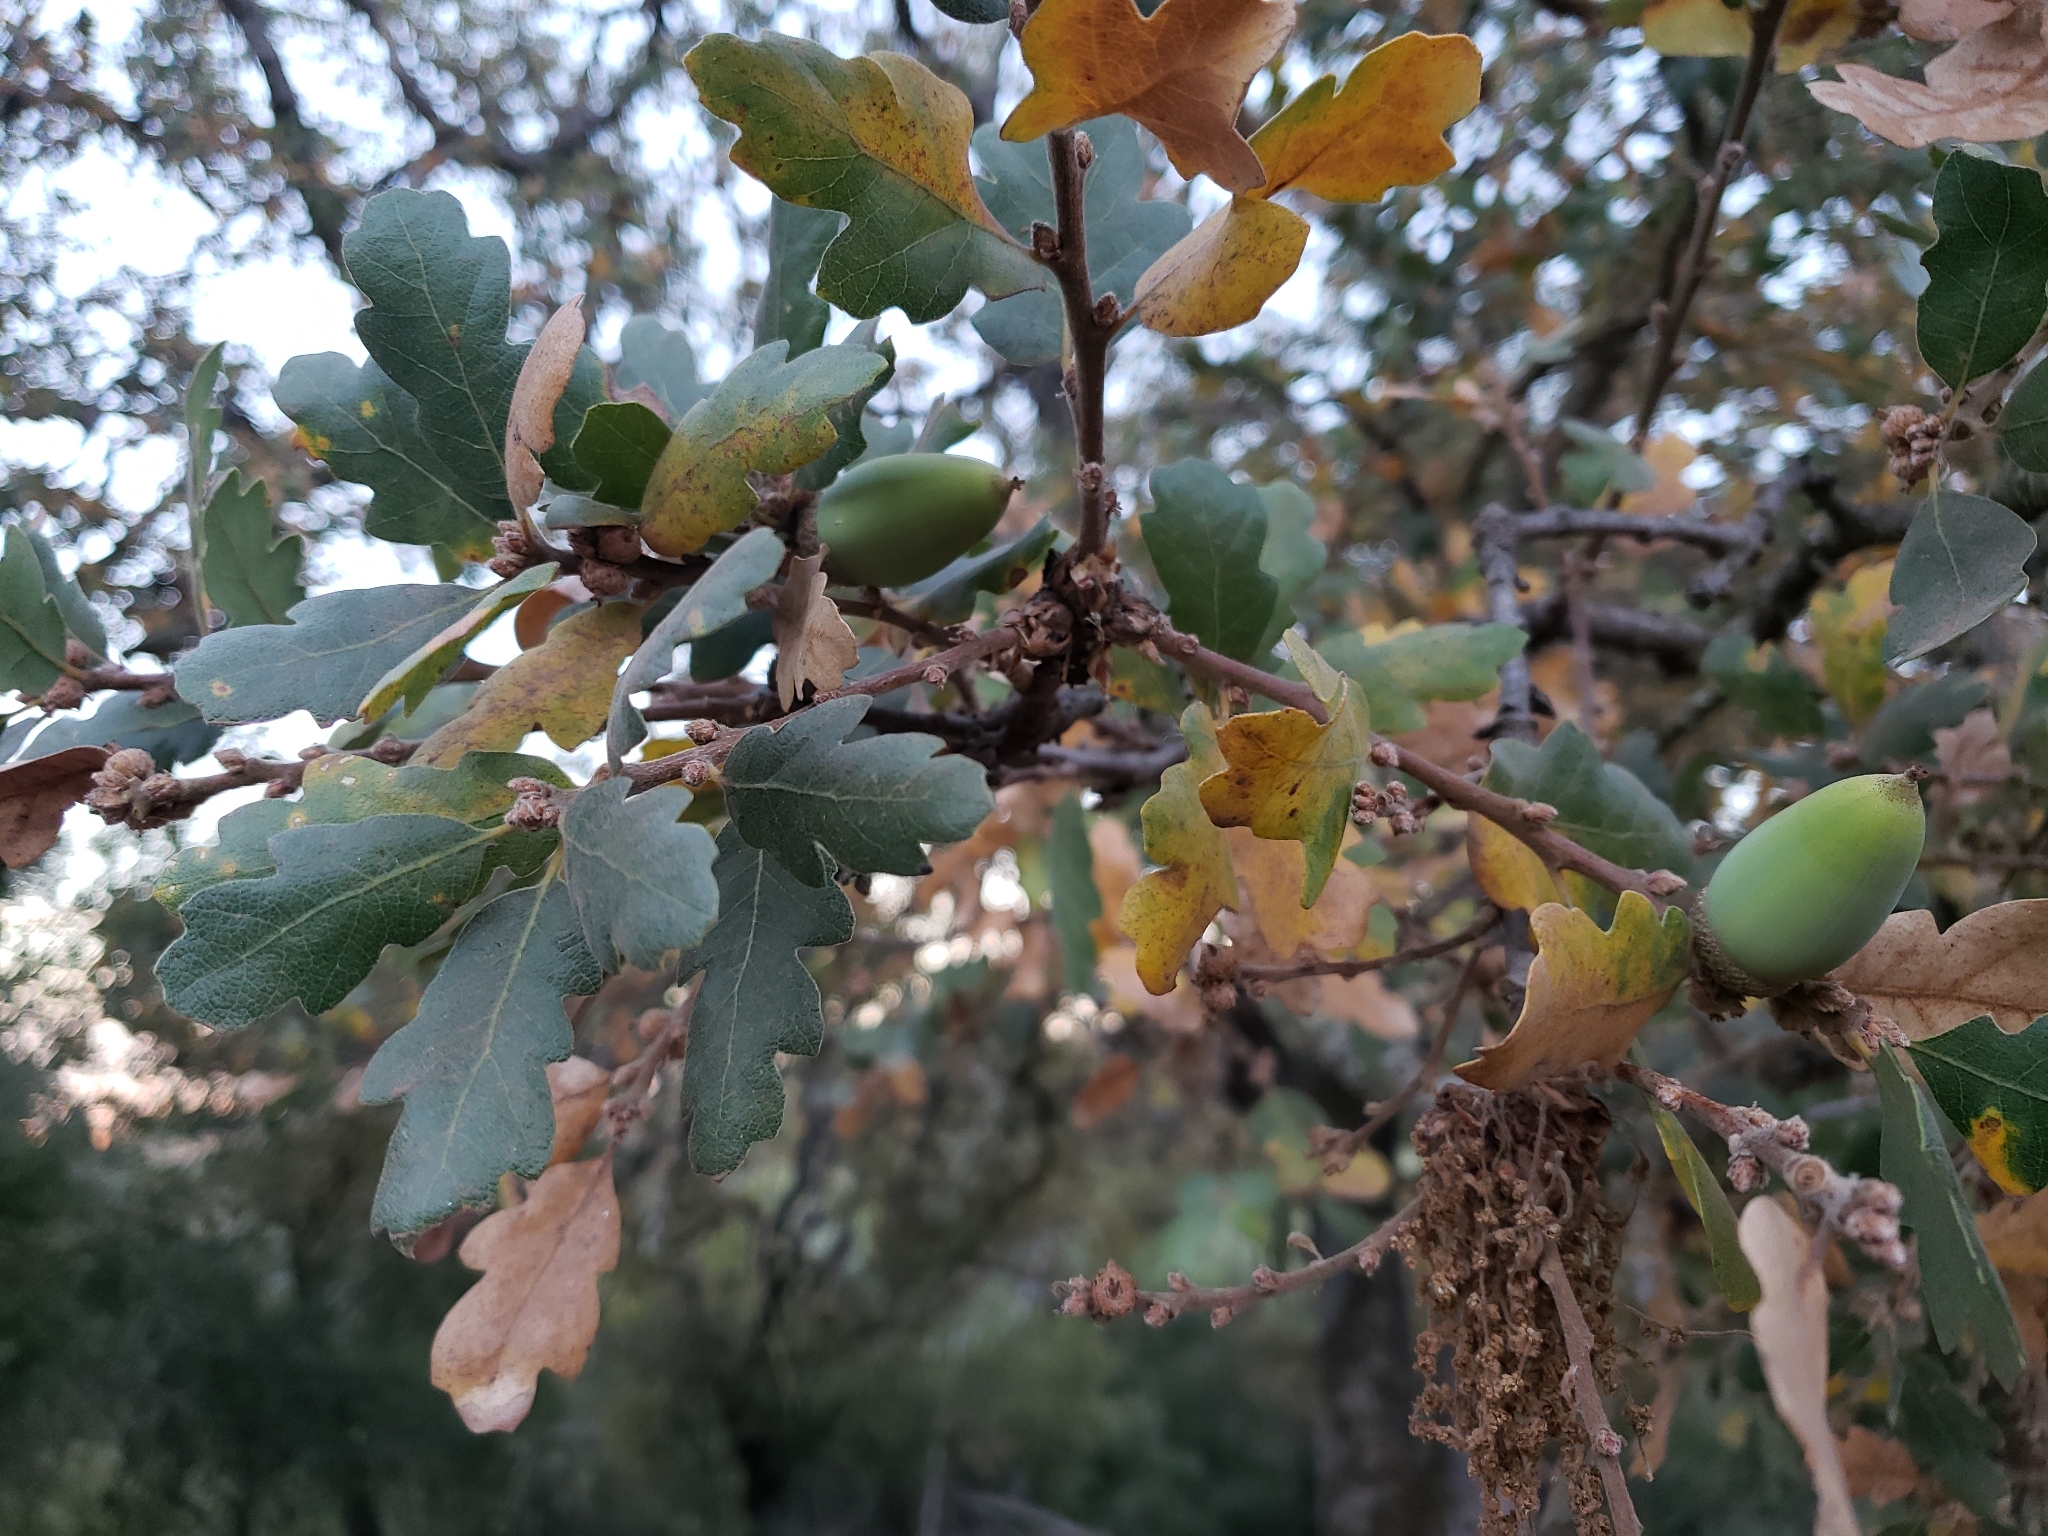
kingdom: Plantae
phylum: Tracheophyta
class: Magnoliopsida
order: Fagales
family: Fagaceae
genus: Quercus
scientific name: Quercus douglasii
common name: Blue oak
